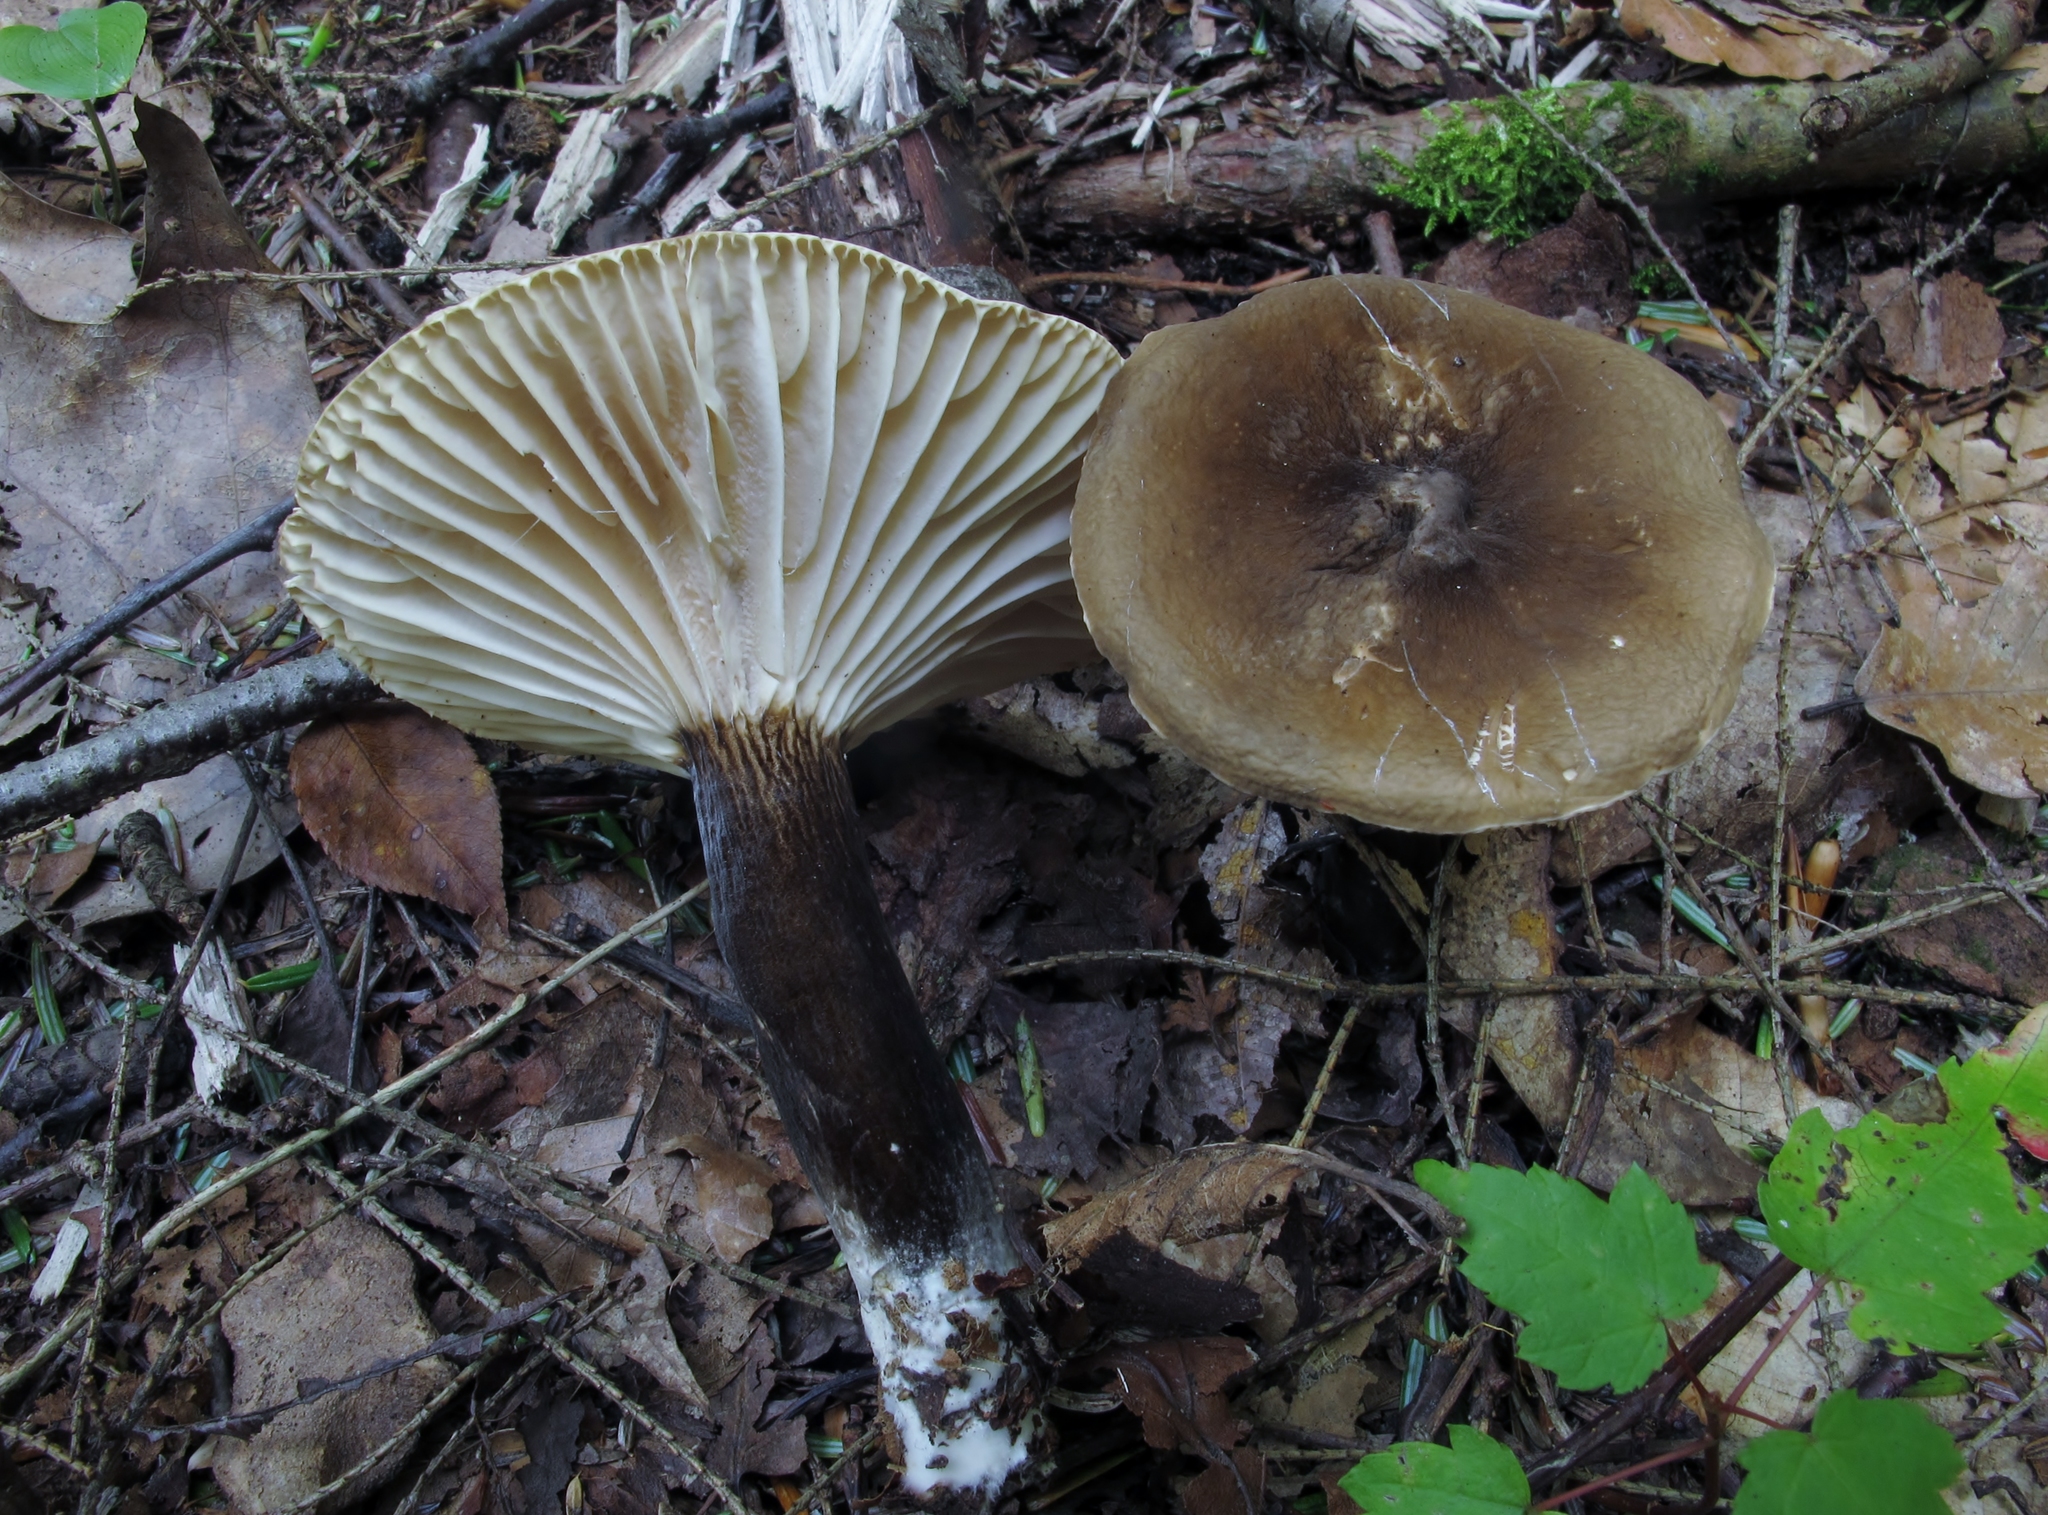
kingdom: Fungi
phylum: Basidiomycota
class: Agaricomycetes
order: Russulales
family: Russulaceae
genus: Lactarius
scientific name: Lactarius gerardii
